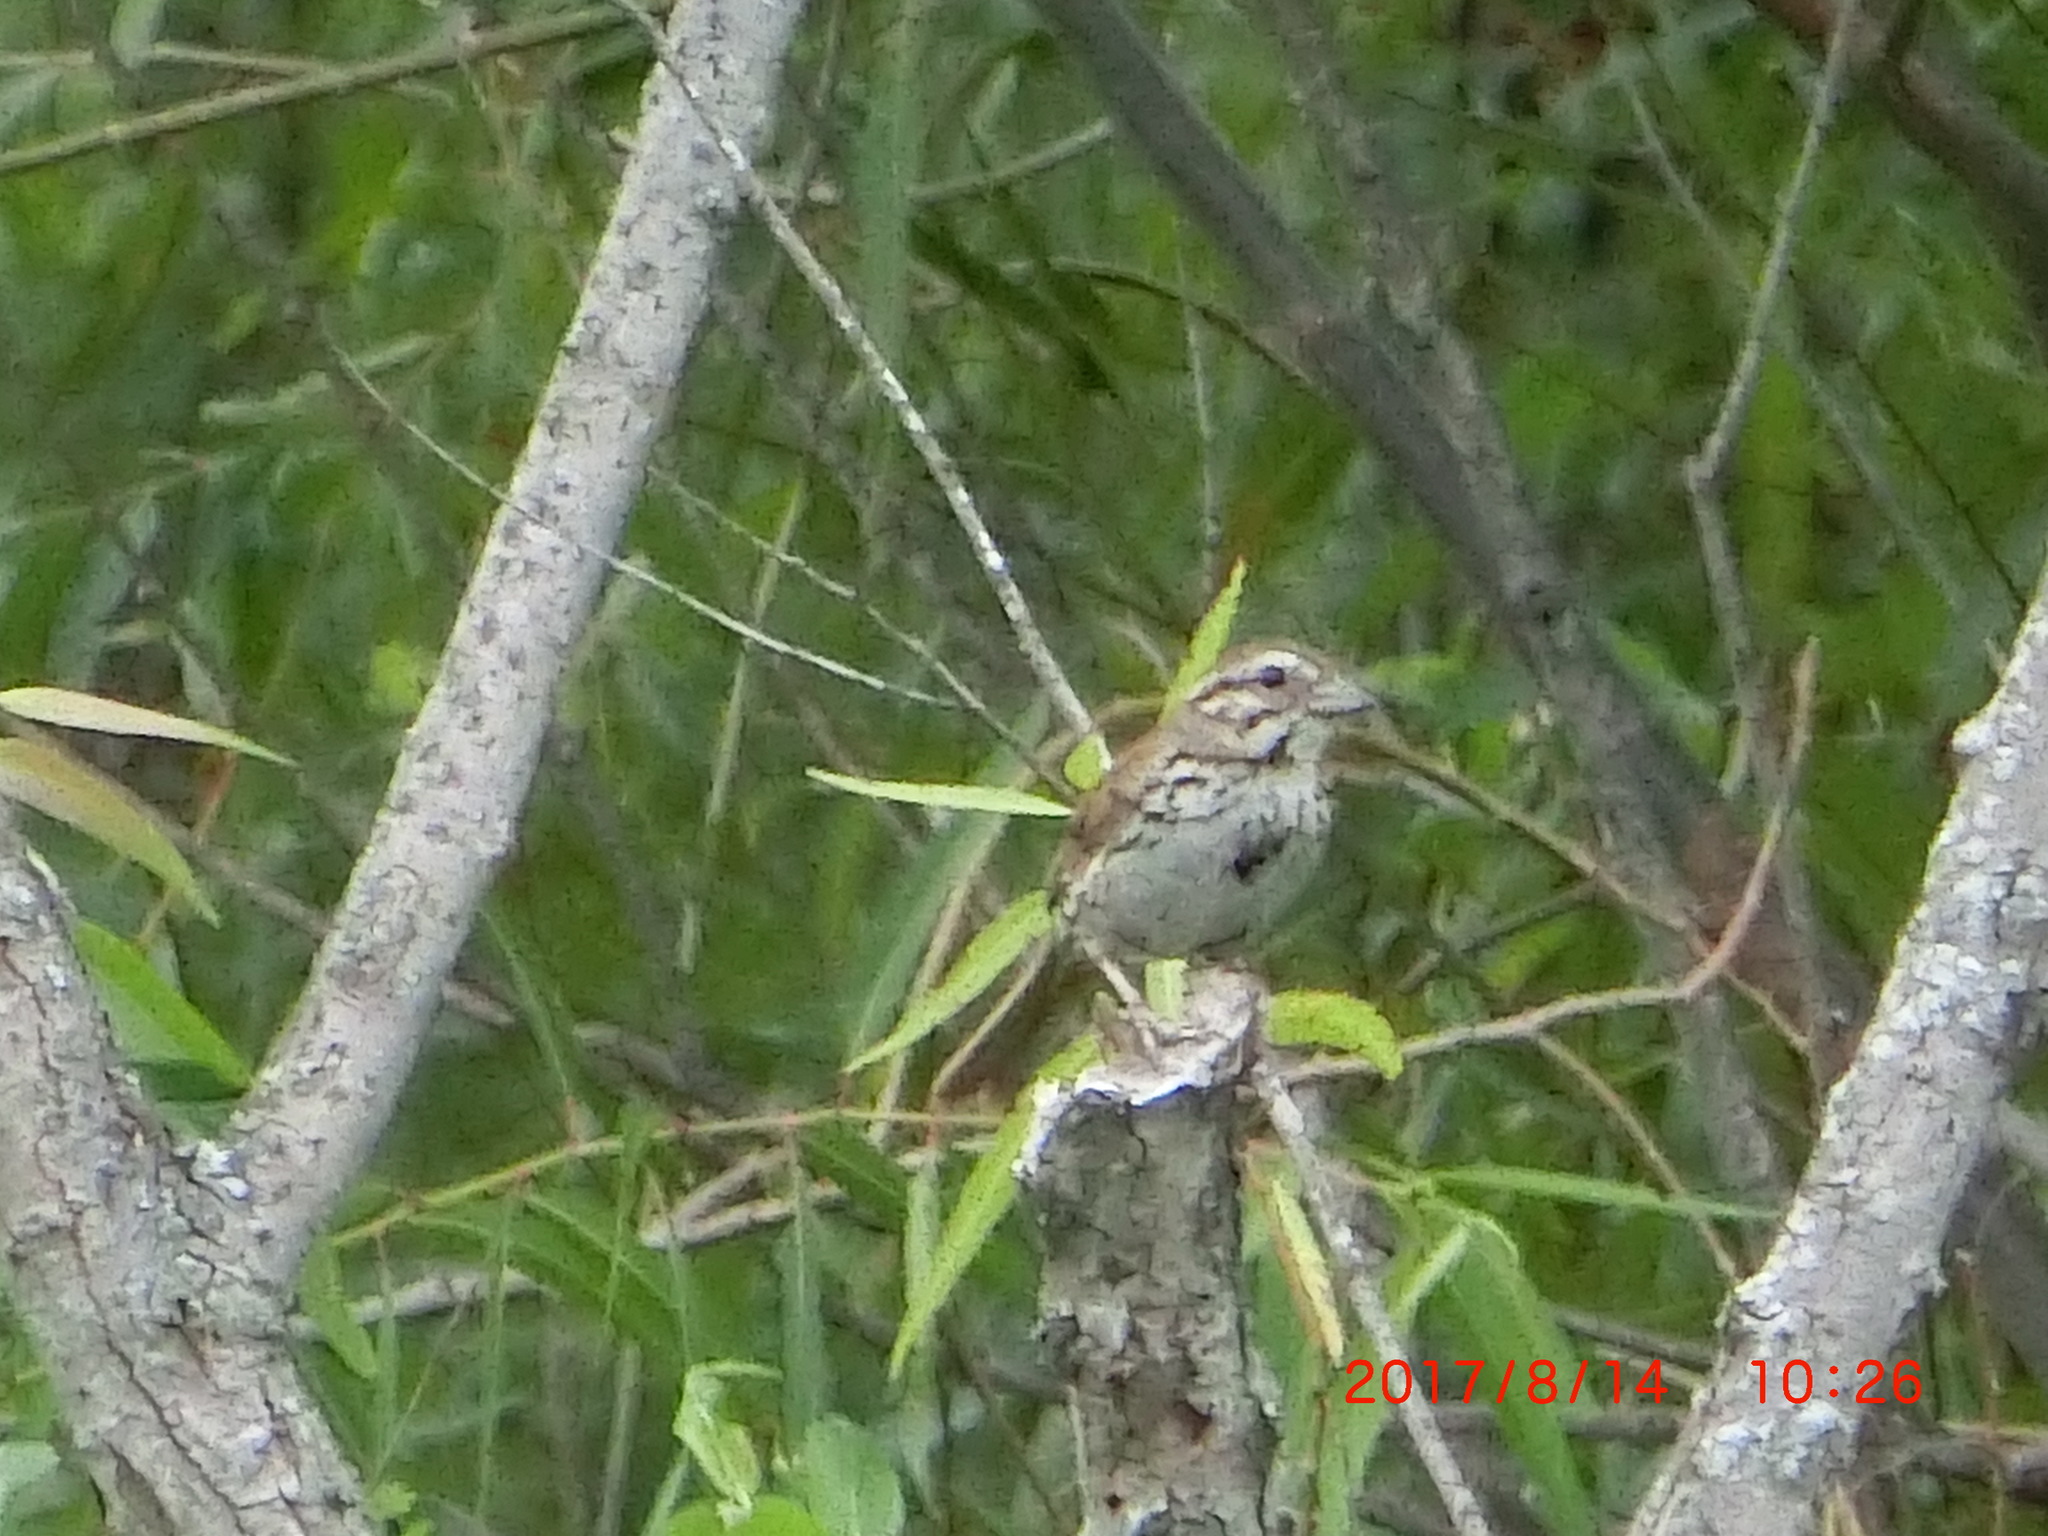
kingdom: Animalia
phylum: Chordata
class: Aves
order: Passeriformes
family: Passerellidae
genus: Melospiza
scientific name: Melospiza melodia
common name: Song sparrow
